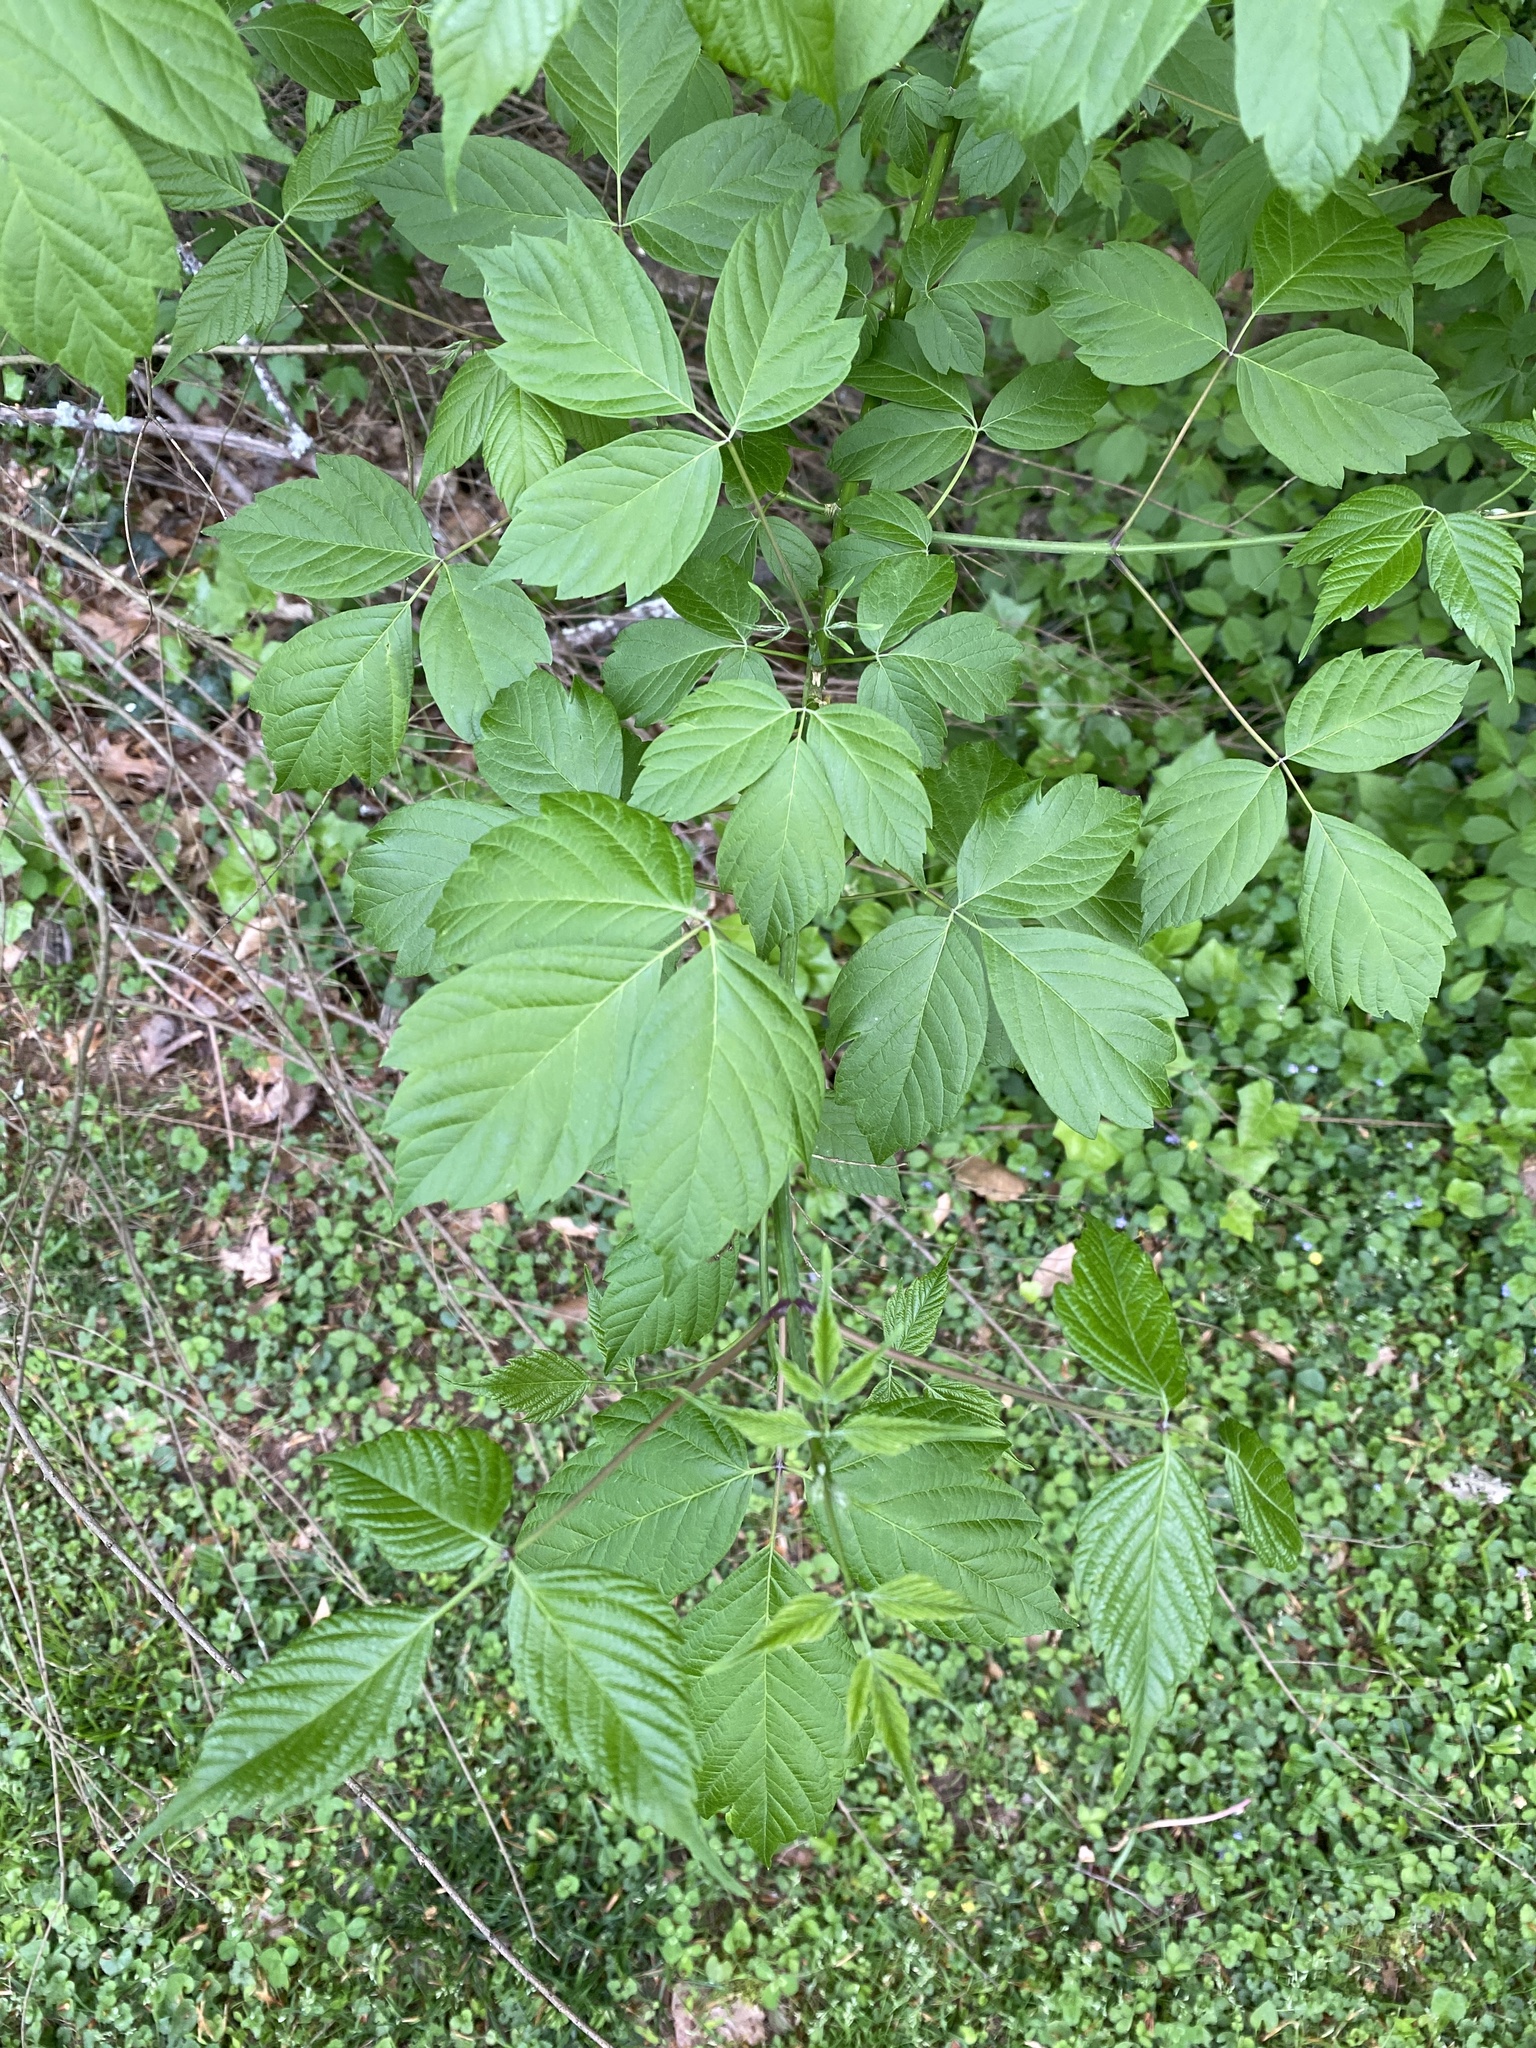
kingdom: Plantae
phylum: Tracheophyta
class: Magnoliopsida
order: Sapindales
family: Sapindaceae
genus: Acer
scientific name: Acer negundo
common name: Ashleaf maple
